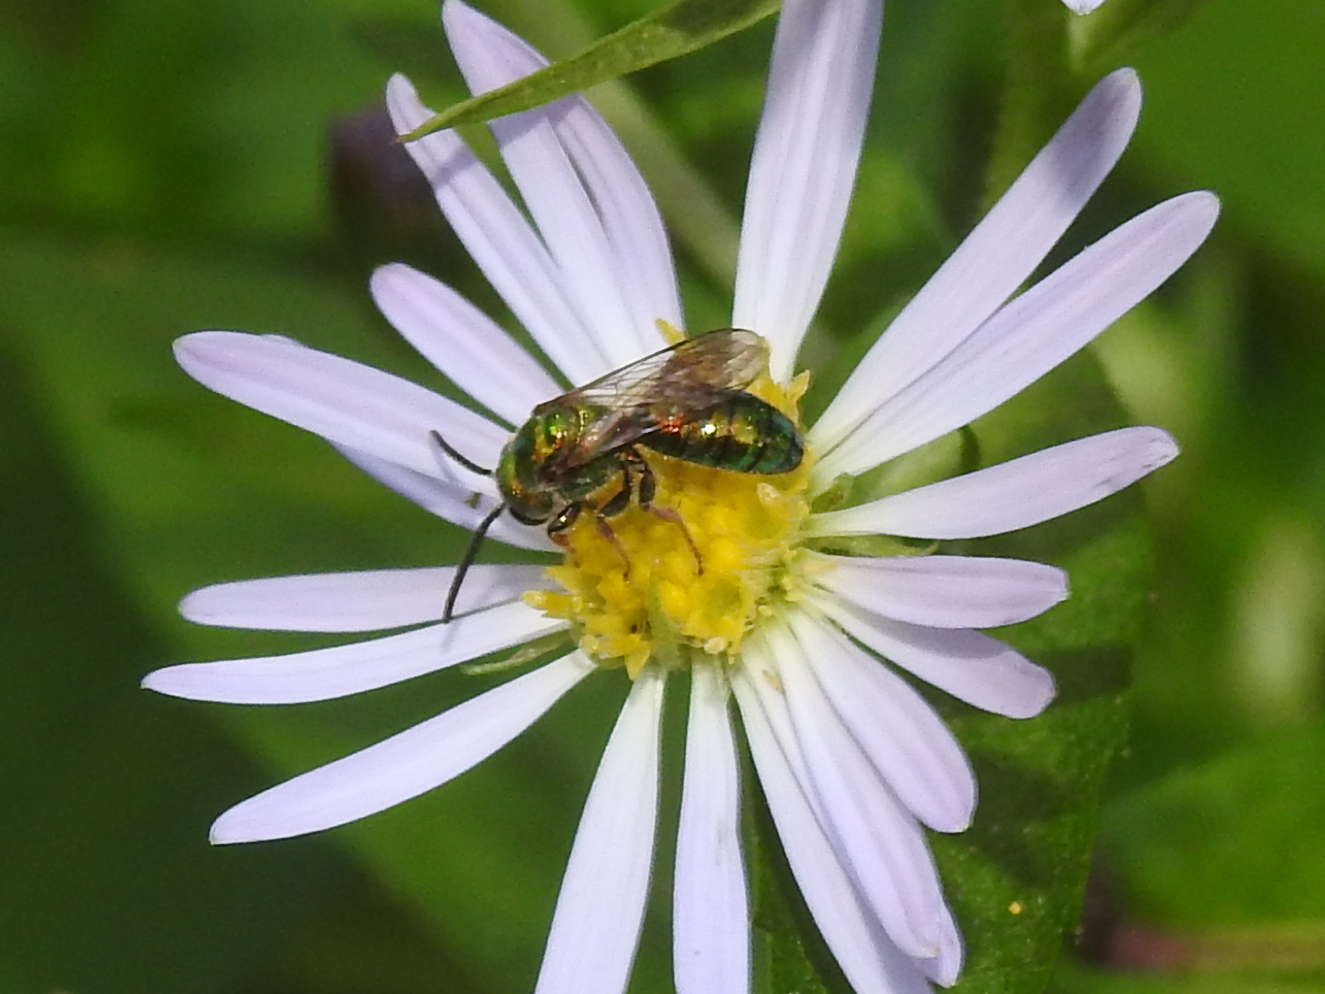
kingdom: Animalia
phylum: Arthropoda
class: Insecta
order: Hymenoptera
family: Halictidae
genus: Augochlora
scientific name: Augochlora pura
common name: Pure green sweat bee
